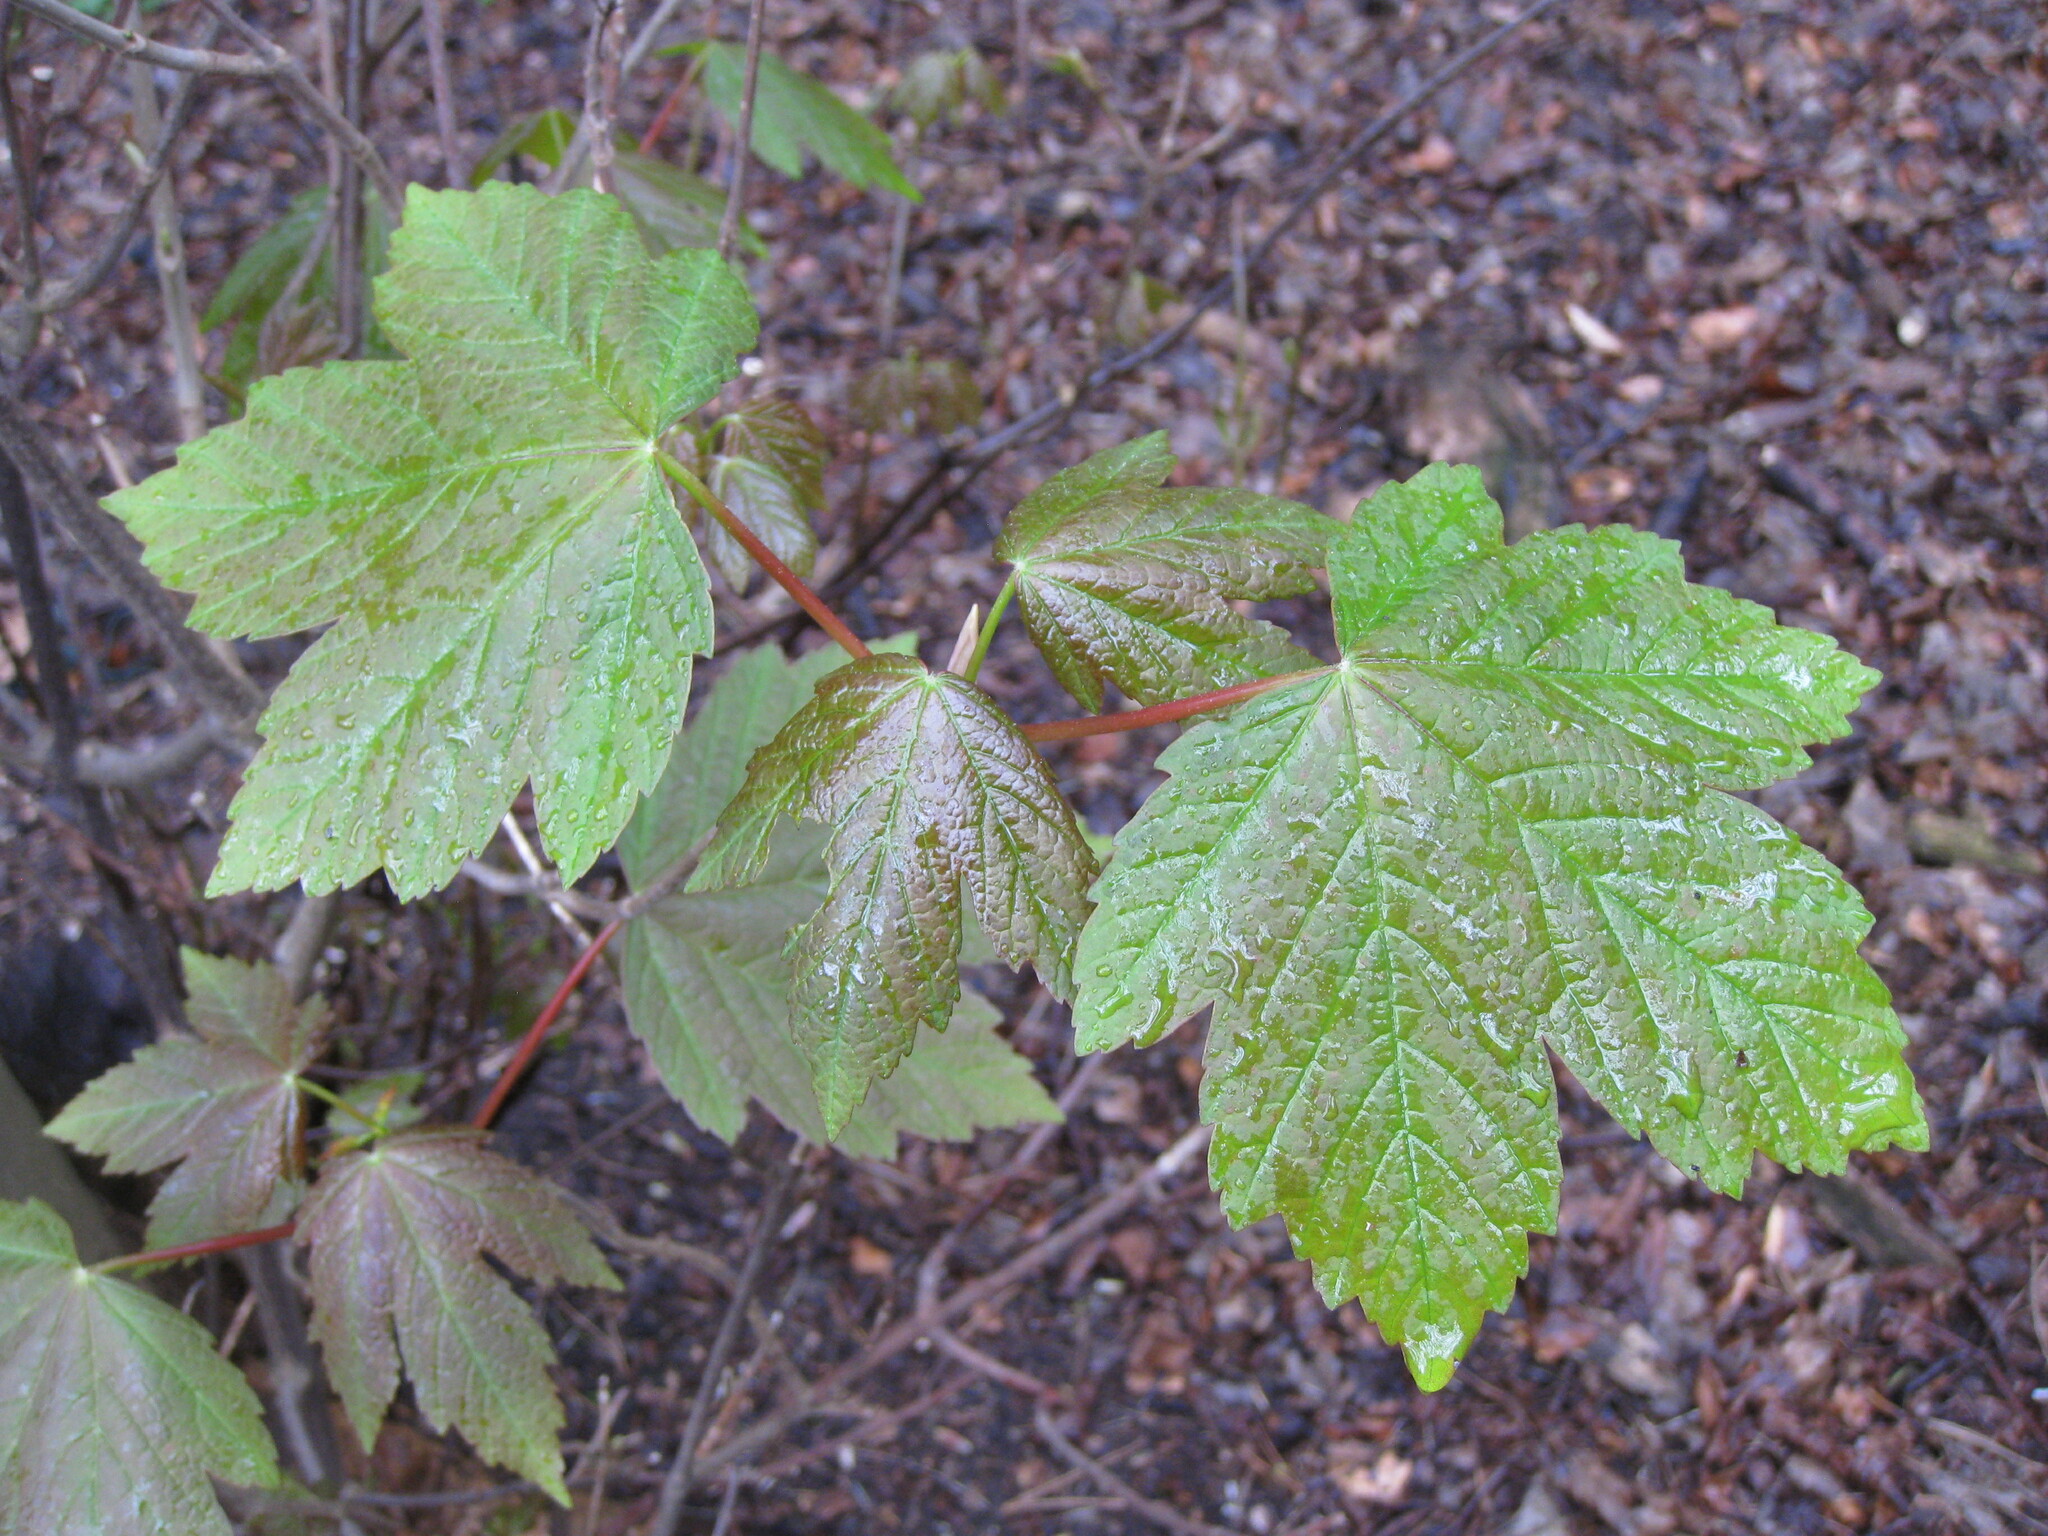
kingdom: Plantae
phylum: Tracheophyta
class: Magnoliopsida
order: Sapindales
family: Sapindaceae
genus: Acer
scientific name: Acer pseudoplatanus
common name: Sycamore
